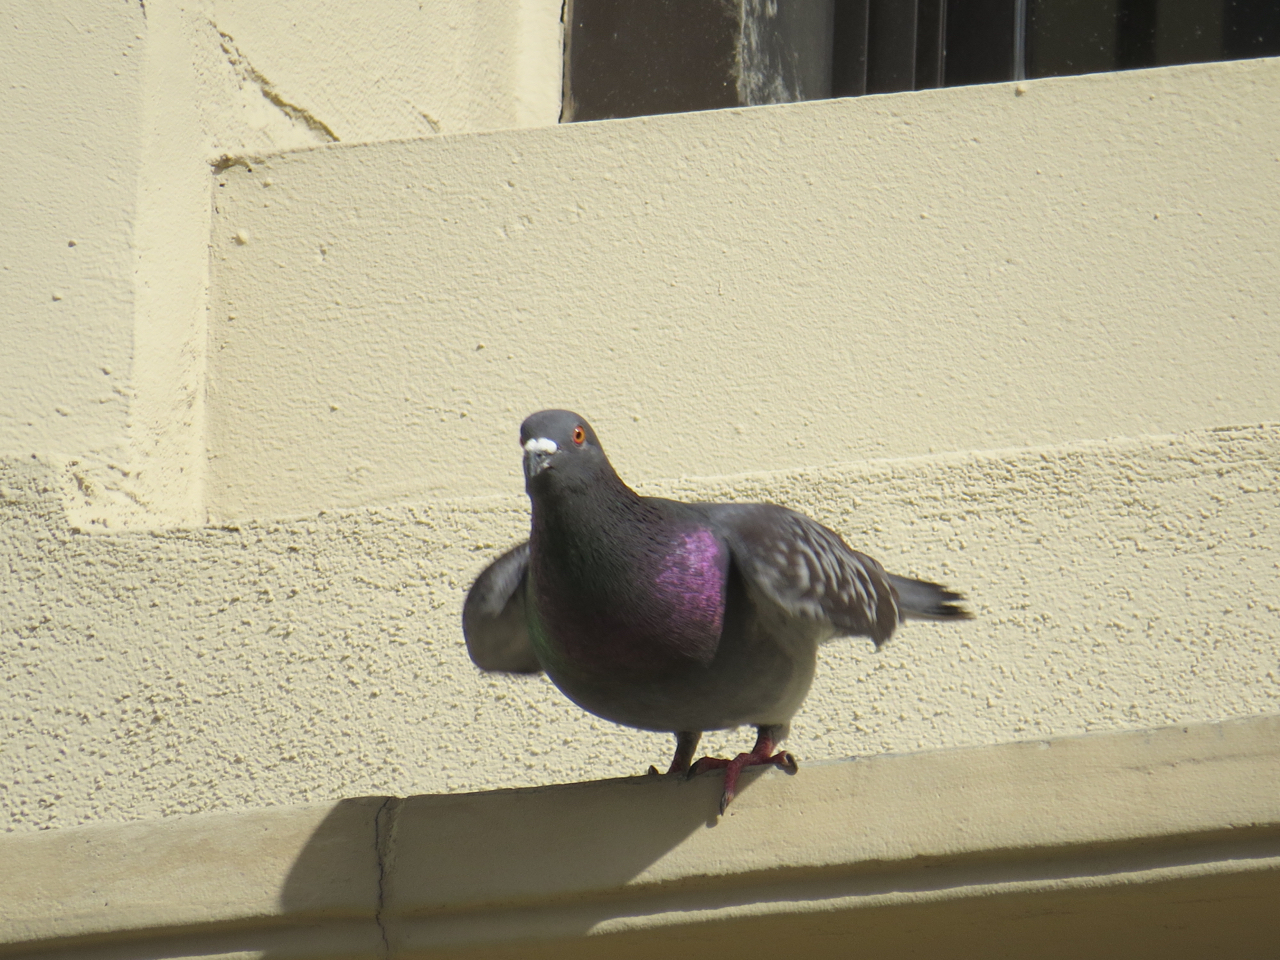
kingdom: Animalia
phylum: Chordata
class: Aves
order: Columbiformes
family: Columbidae
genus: Columba
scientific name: Columba livia
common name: Rock pigeon
